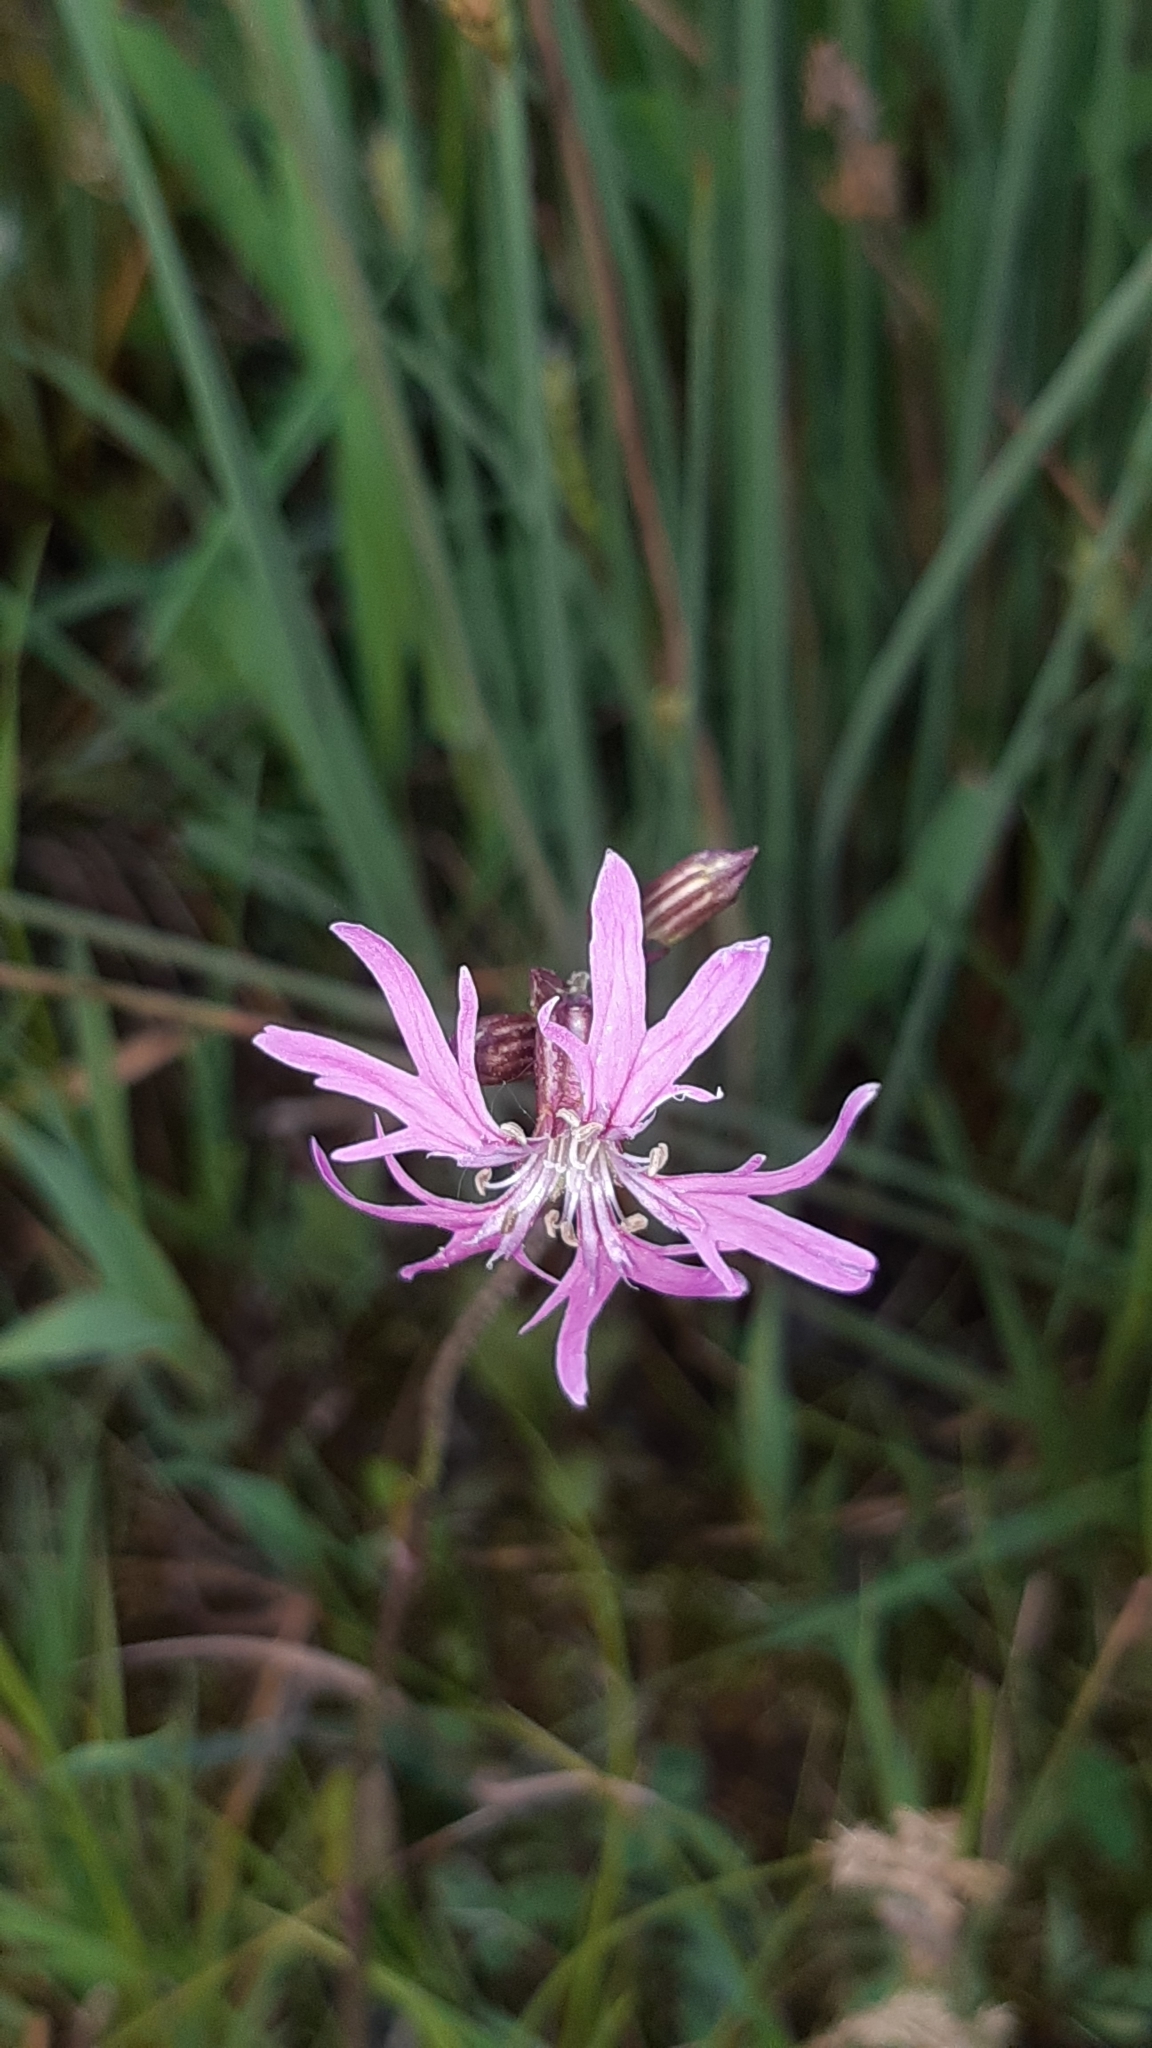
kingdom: Plantae
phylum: Tracheophyta
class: Magnoliopsida
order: Caryophyllales
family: Caryophyllaceae
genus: Silene
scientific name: Silene flos-cuculi
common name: Ragged-robin
